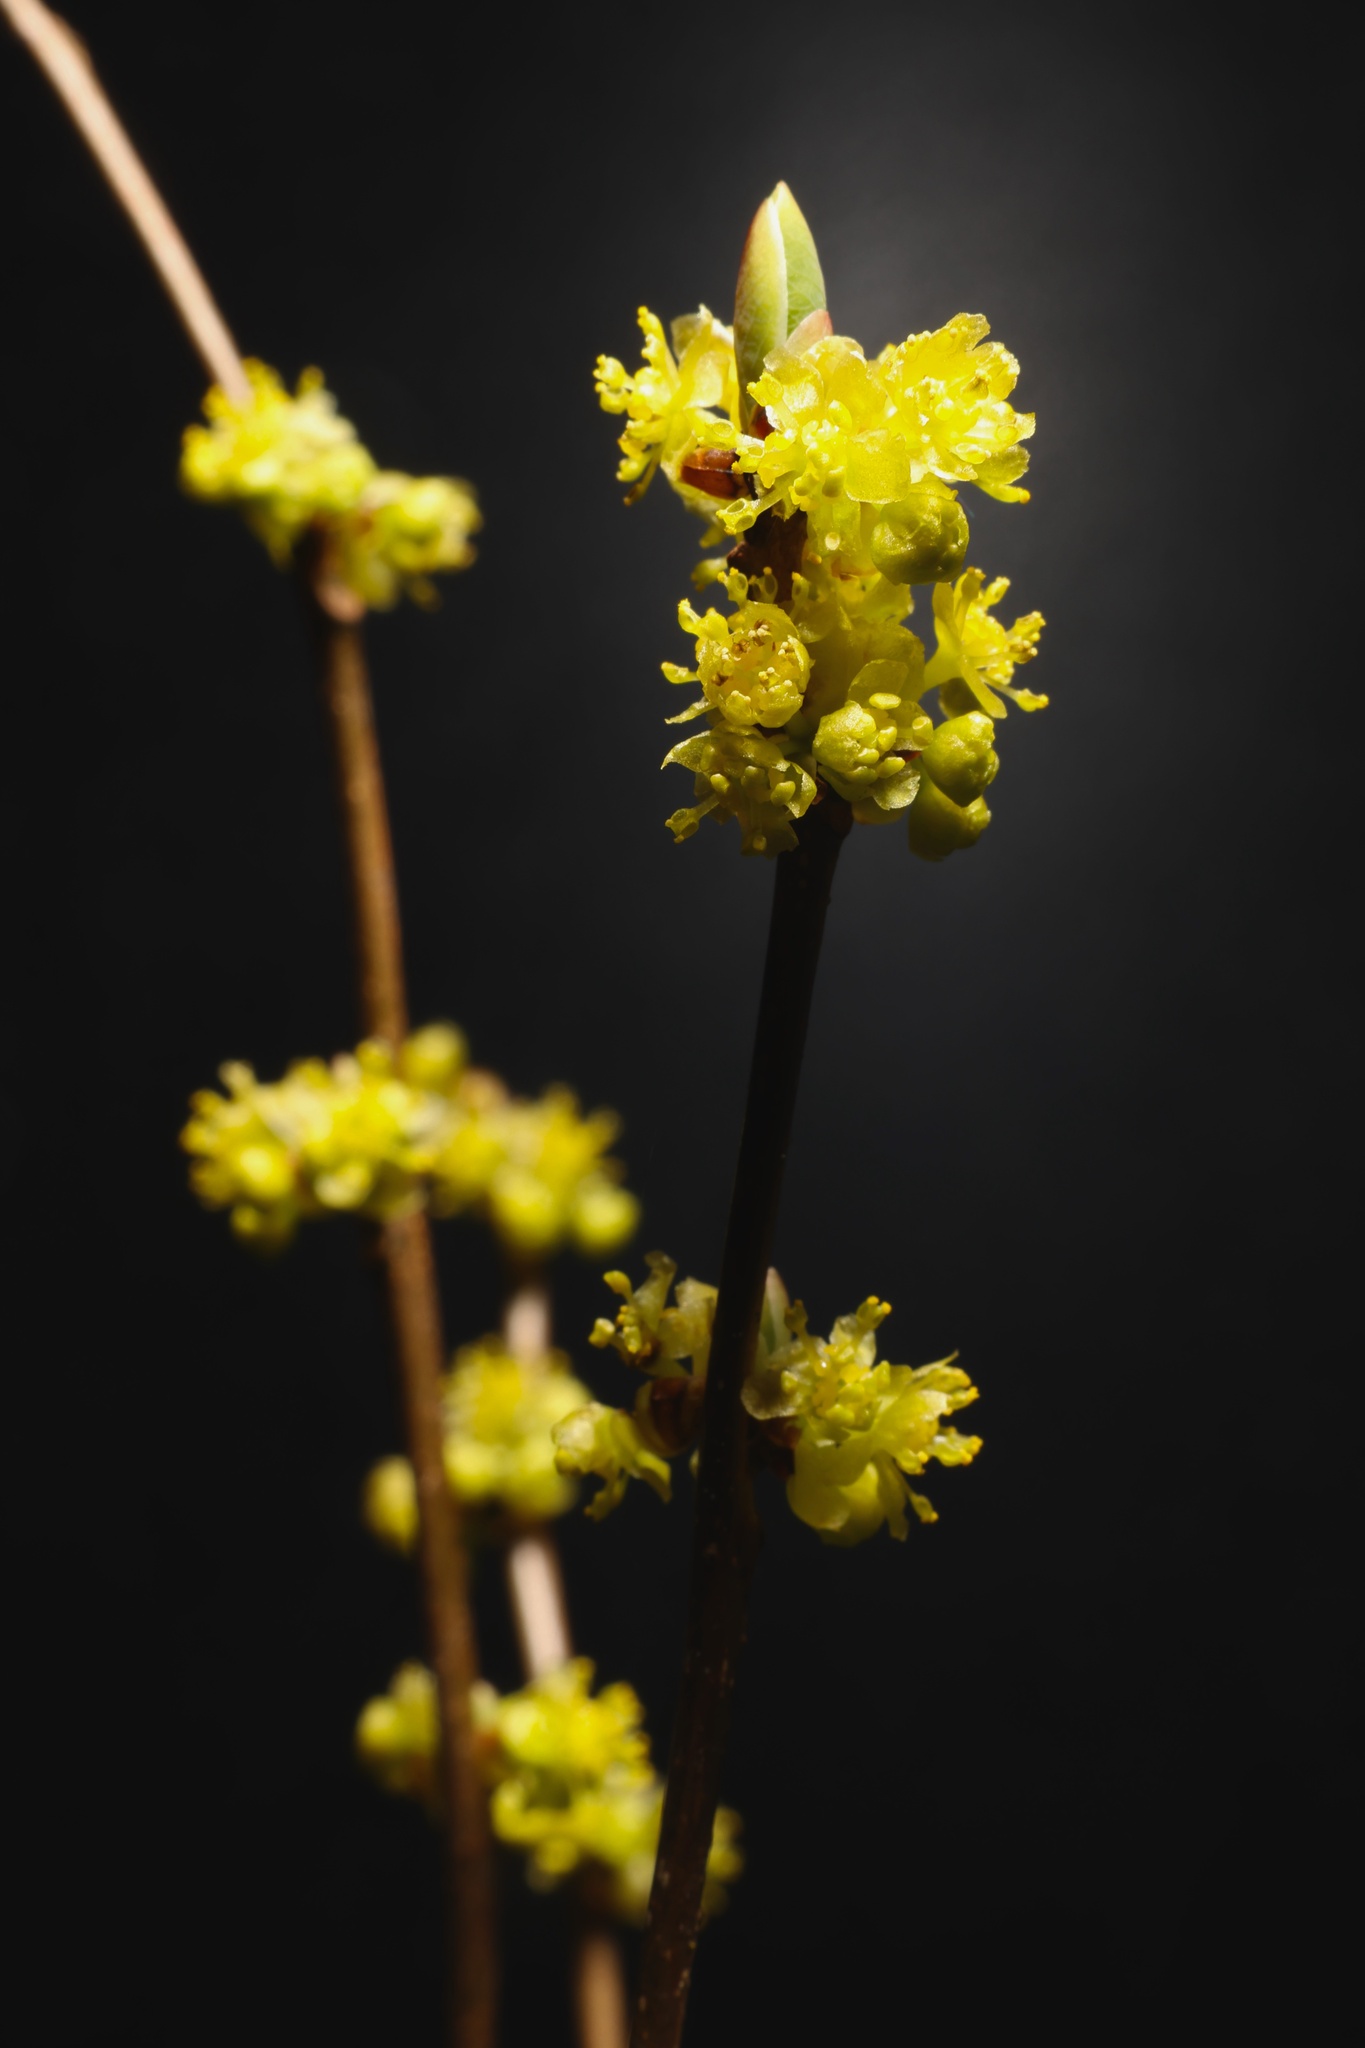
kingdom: Plantae
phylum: Tracheophyta
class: Magnoliopsida
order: Laurales
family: Lauraceae
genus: Lindera
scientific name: Lindera benzoin
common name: Spicebush
